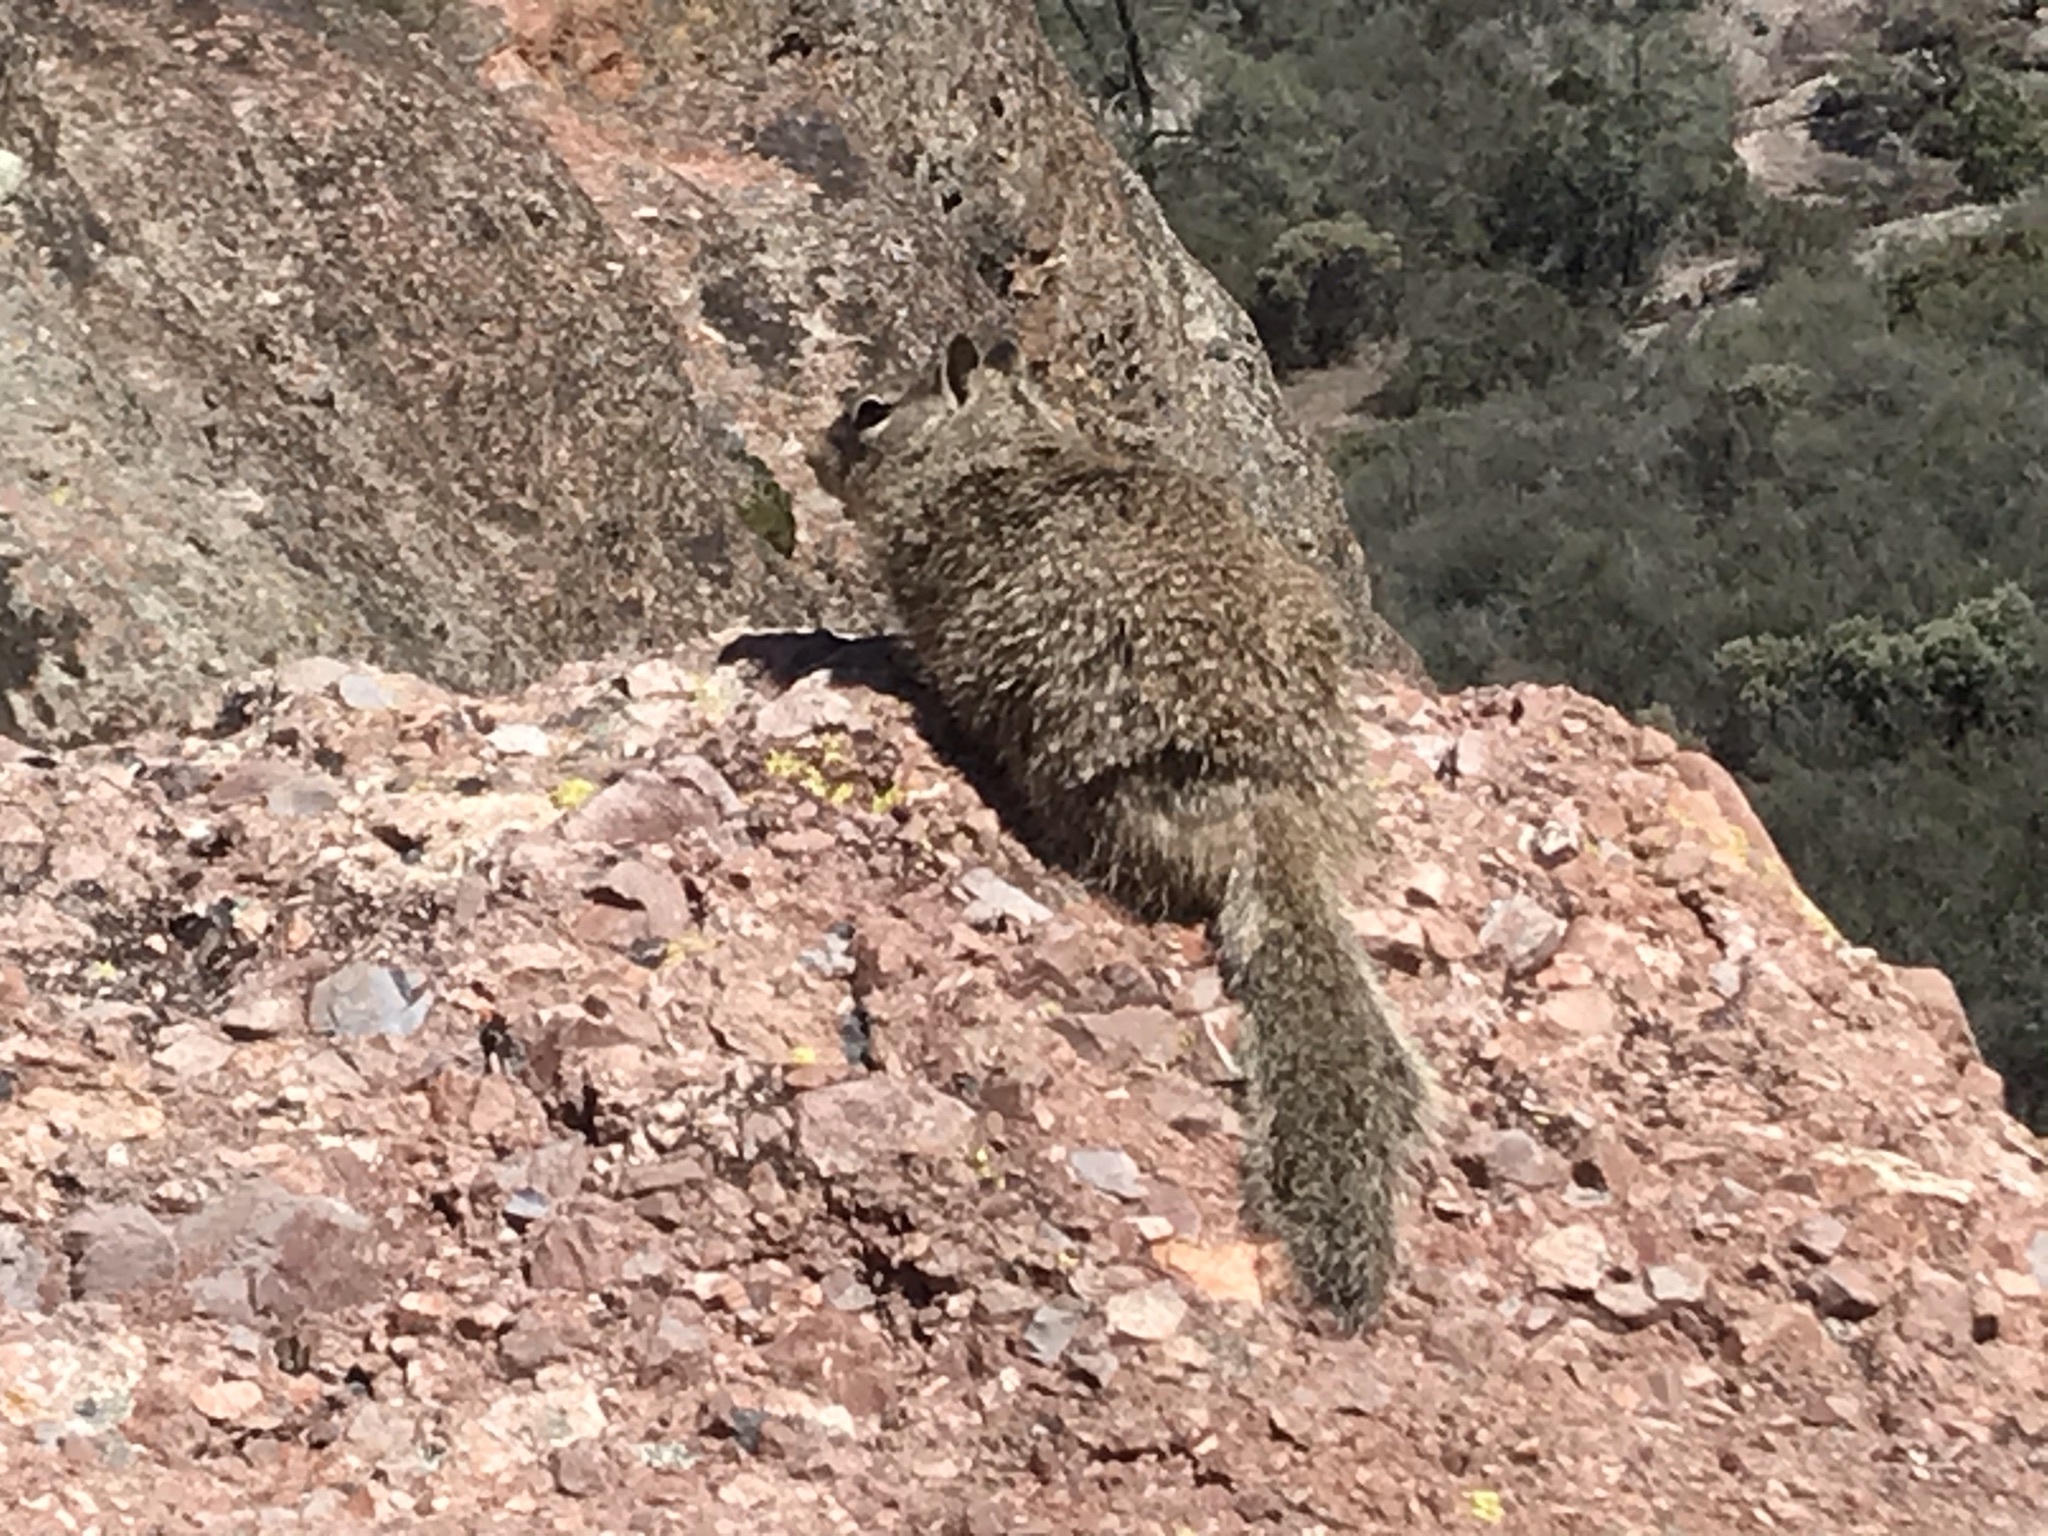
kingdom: Animalia
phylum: Chordata
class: Mammalia
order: Rodentia
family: Sciuridae
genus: Otospermophilus
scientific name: Otospermophilus beecheyi
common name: California ground squirrel
